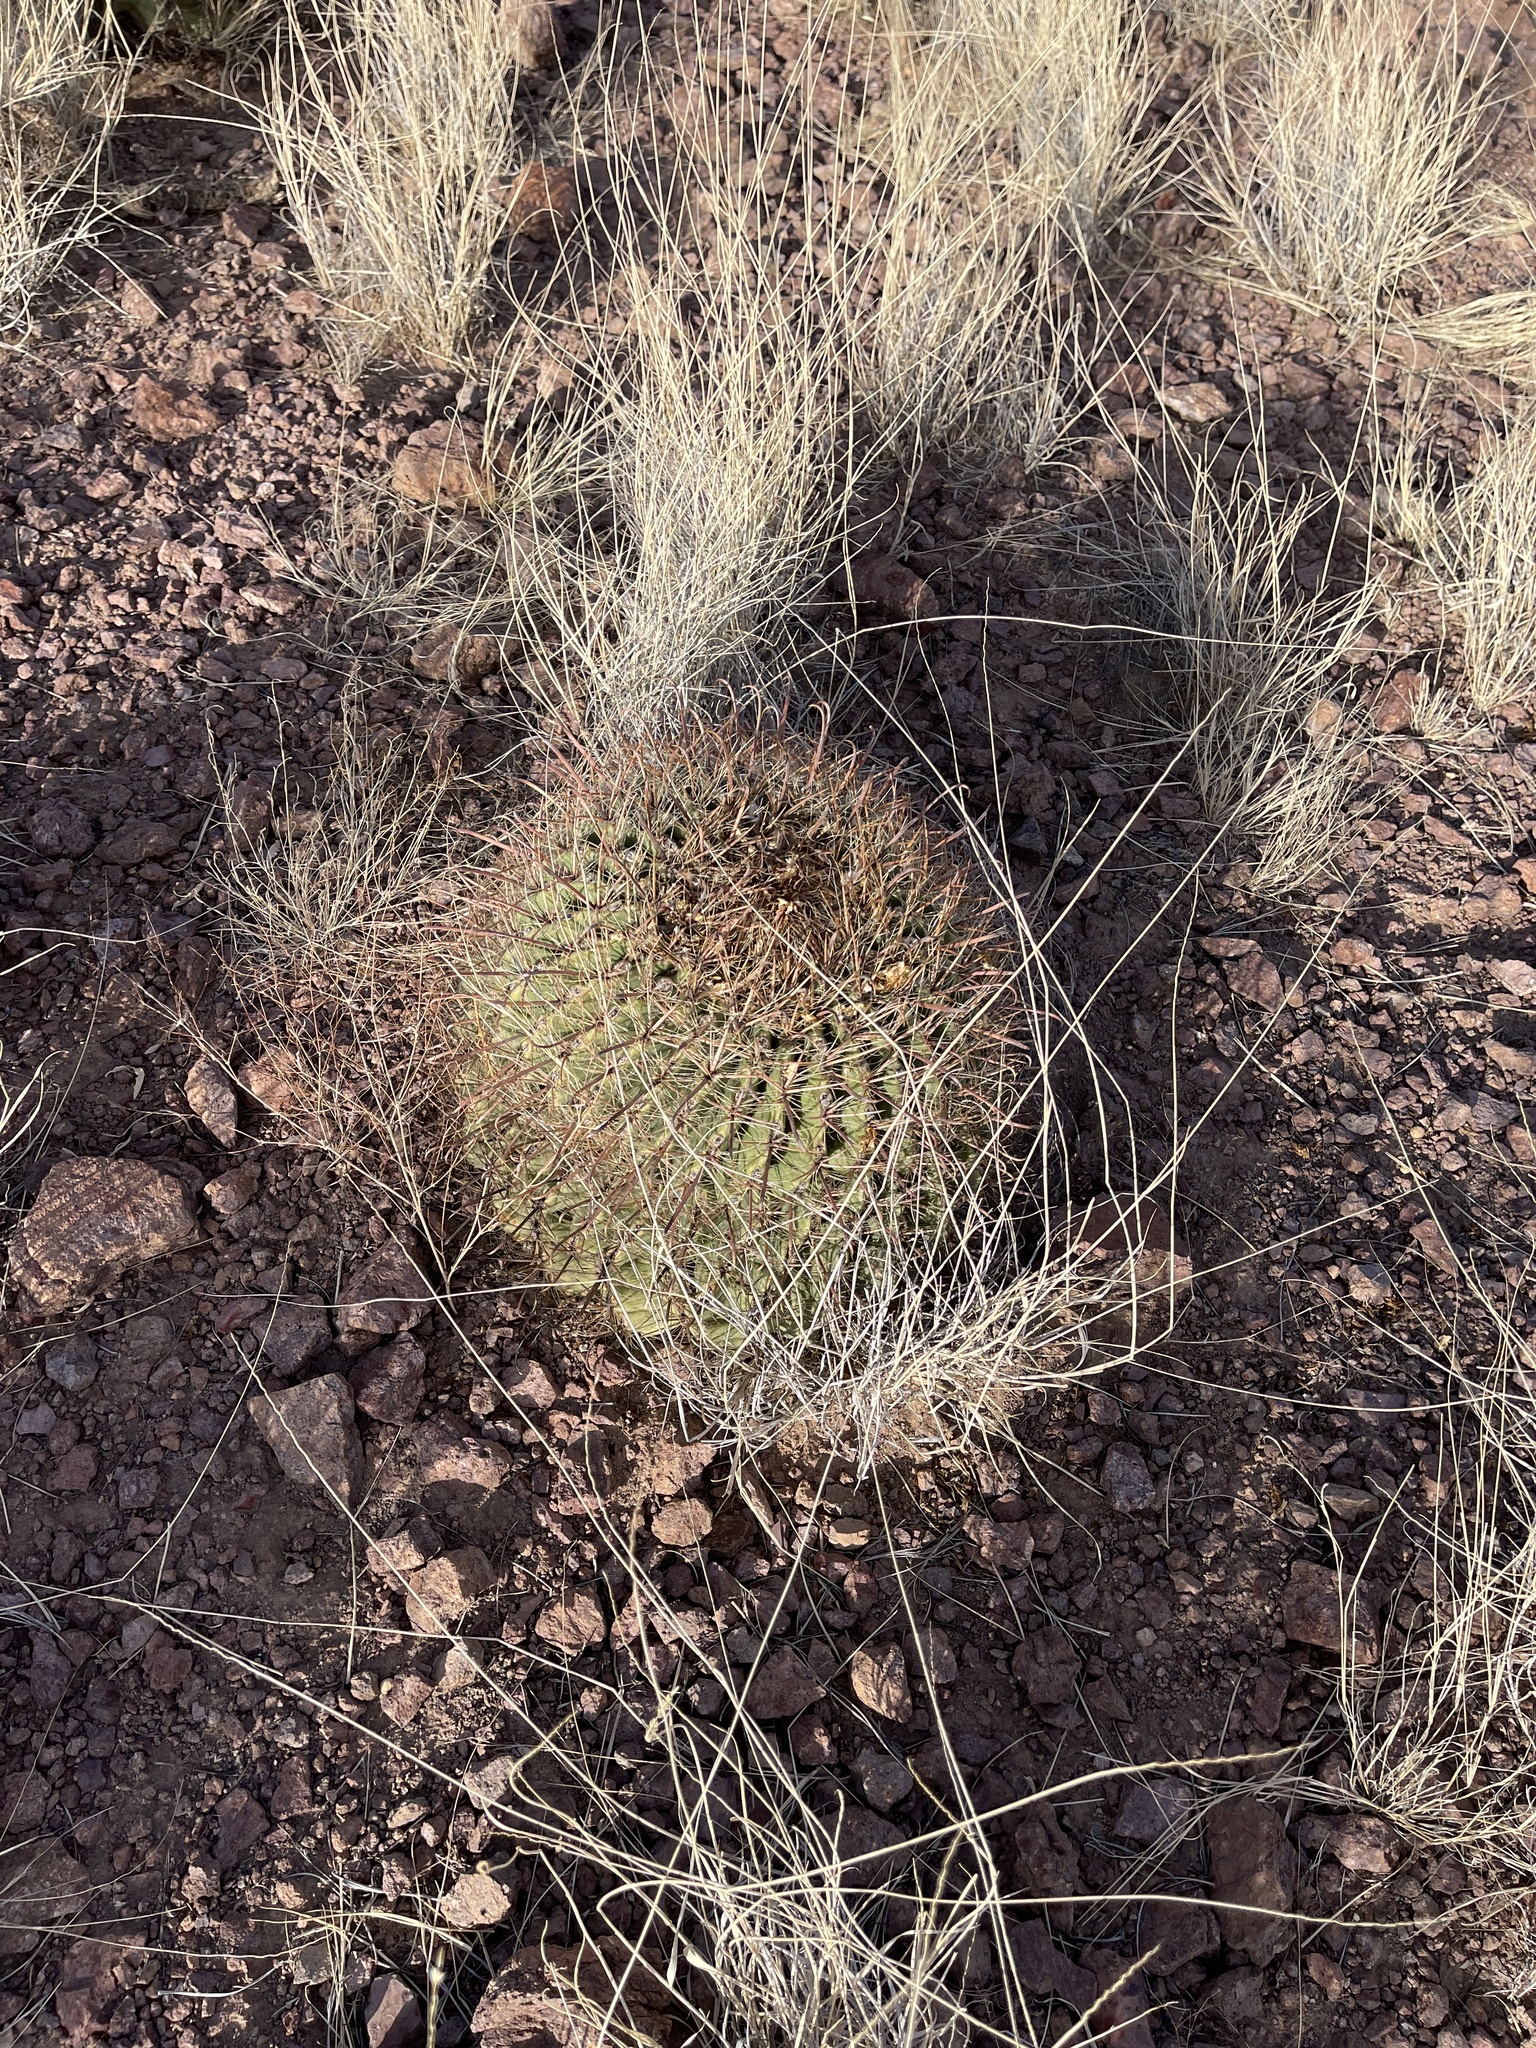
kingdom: Plantae
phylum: Tracheophyta
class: Magnoliopsida
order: Caryophyllales
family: Cactaceae
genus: Ferocactus
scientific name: Ferocactus wislizeni
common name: Candy barrel cactus
